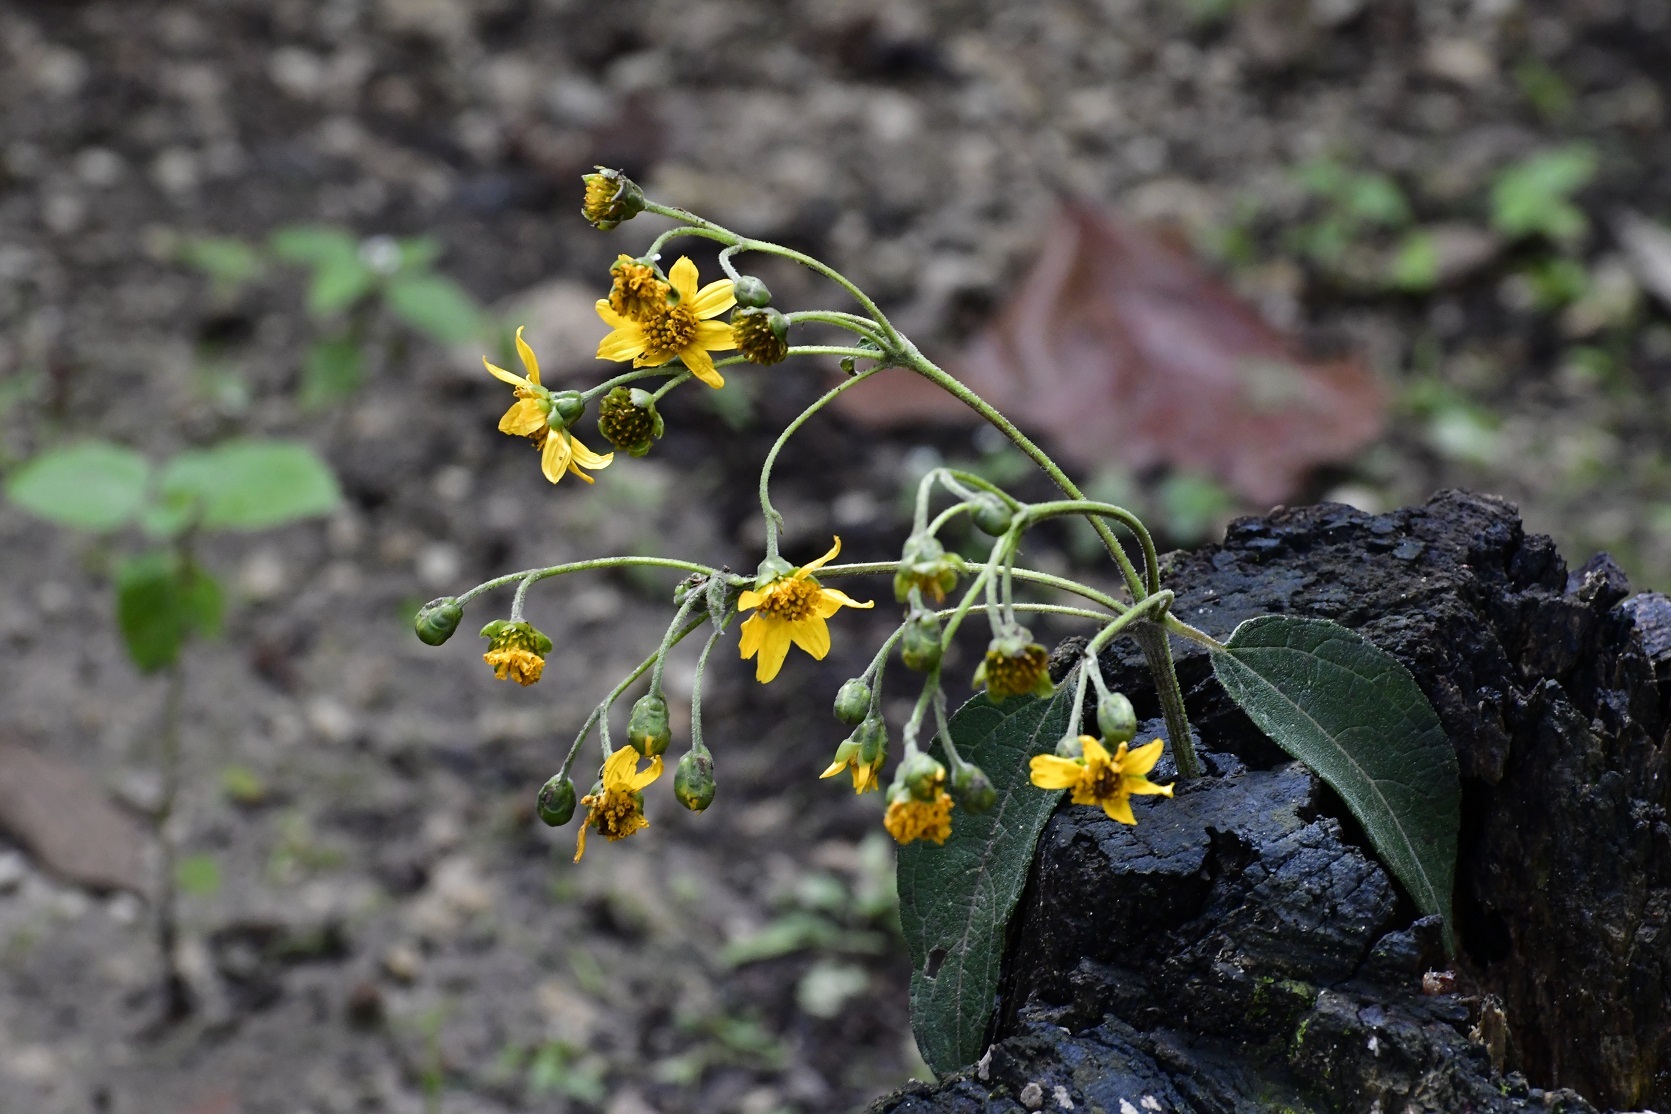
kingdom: Plantae
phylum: Tracheophyta
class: Magnoliopsida
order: Asterales
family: Asteraceae
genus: Perymenium
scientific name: Perymenium grande
